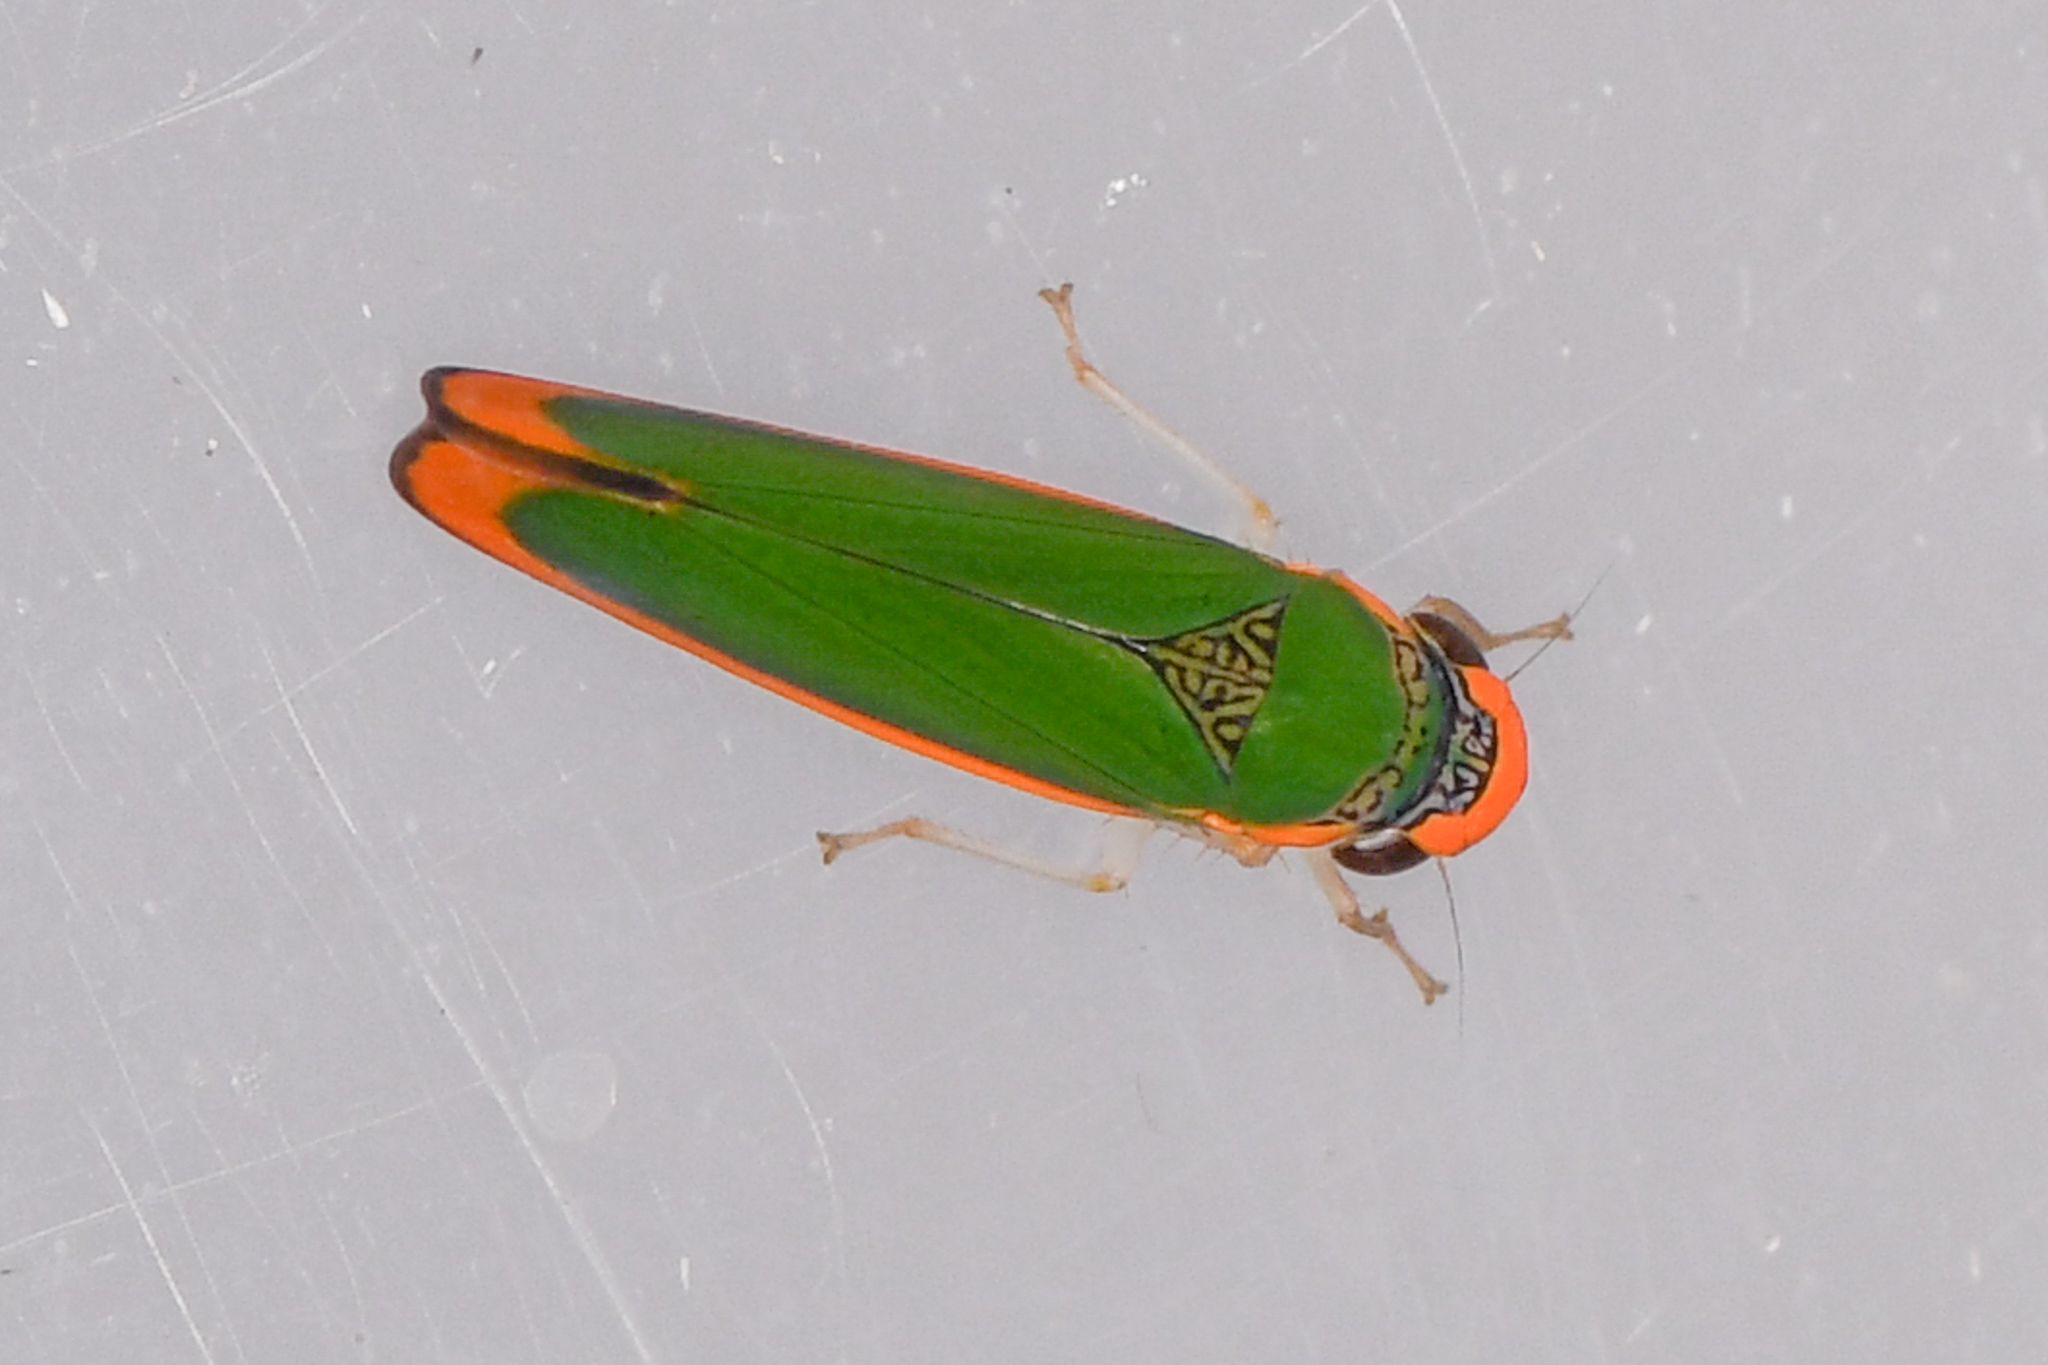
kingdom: Animalia
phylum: Arthropoda
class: Insecta
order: Hemiptera
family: Cicadellidae
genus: Stephanolla
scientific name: Stephanolla rufoapicata
